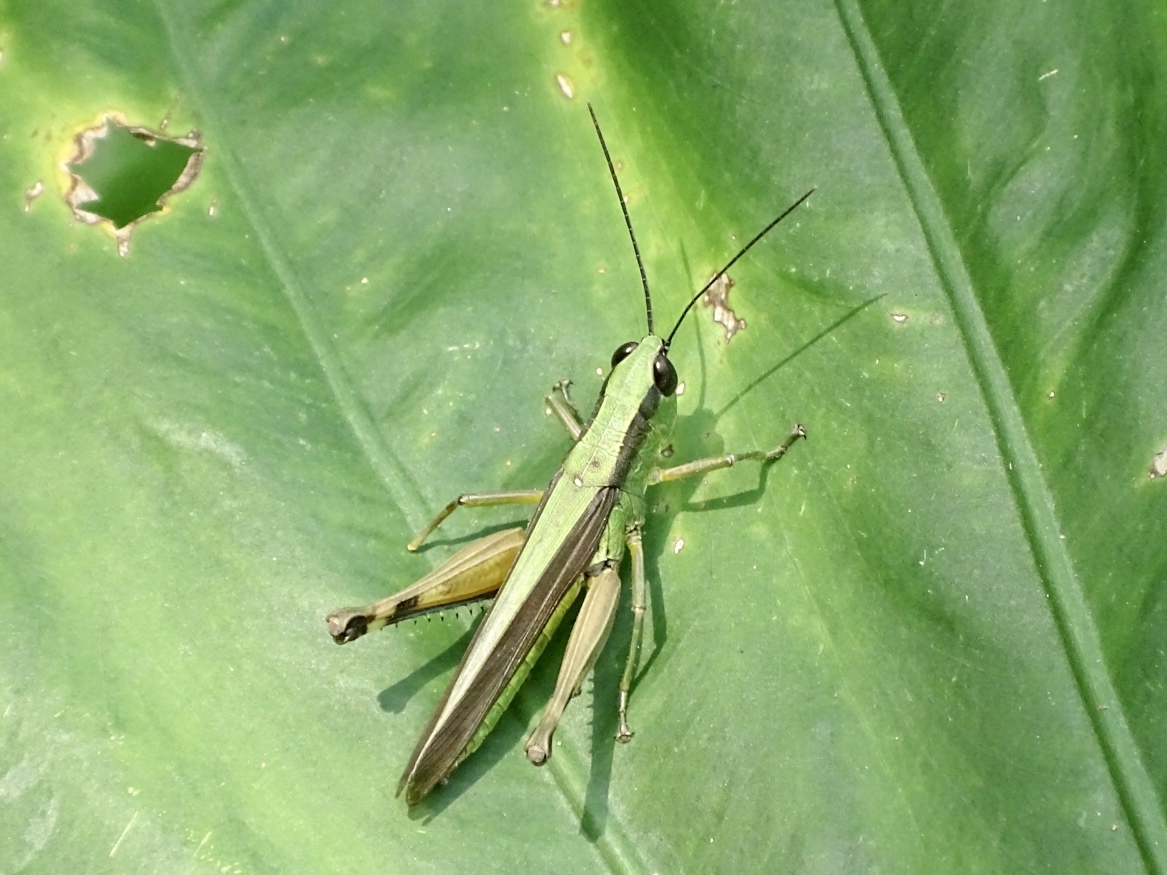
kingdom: Animalia
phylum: Arthropoda
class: Insecta
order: Orthoptera
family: Acrididae
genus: Ceracris
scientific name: Ceracris nigricornis
